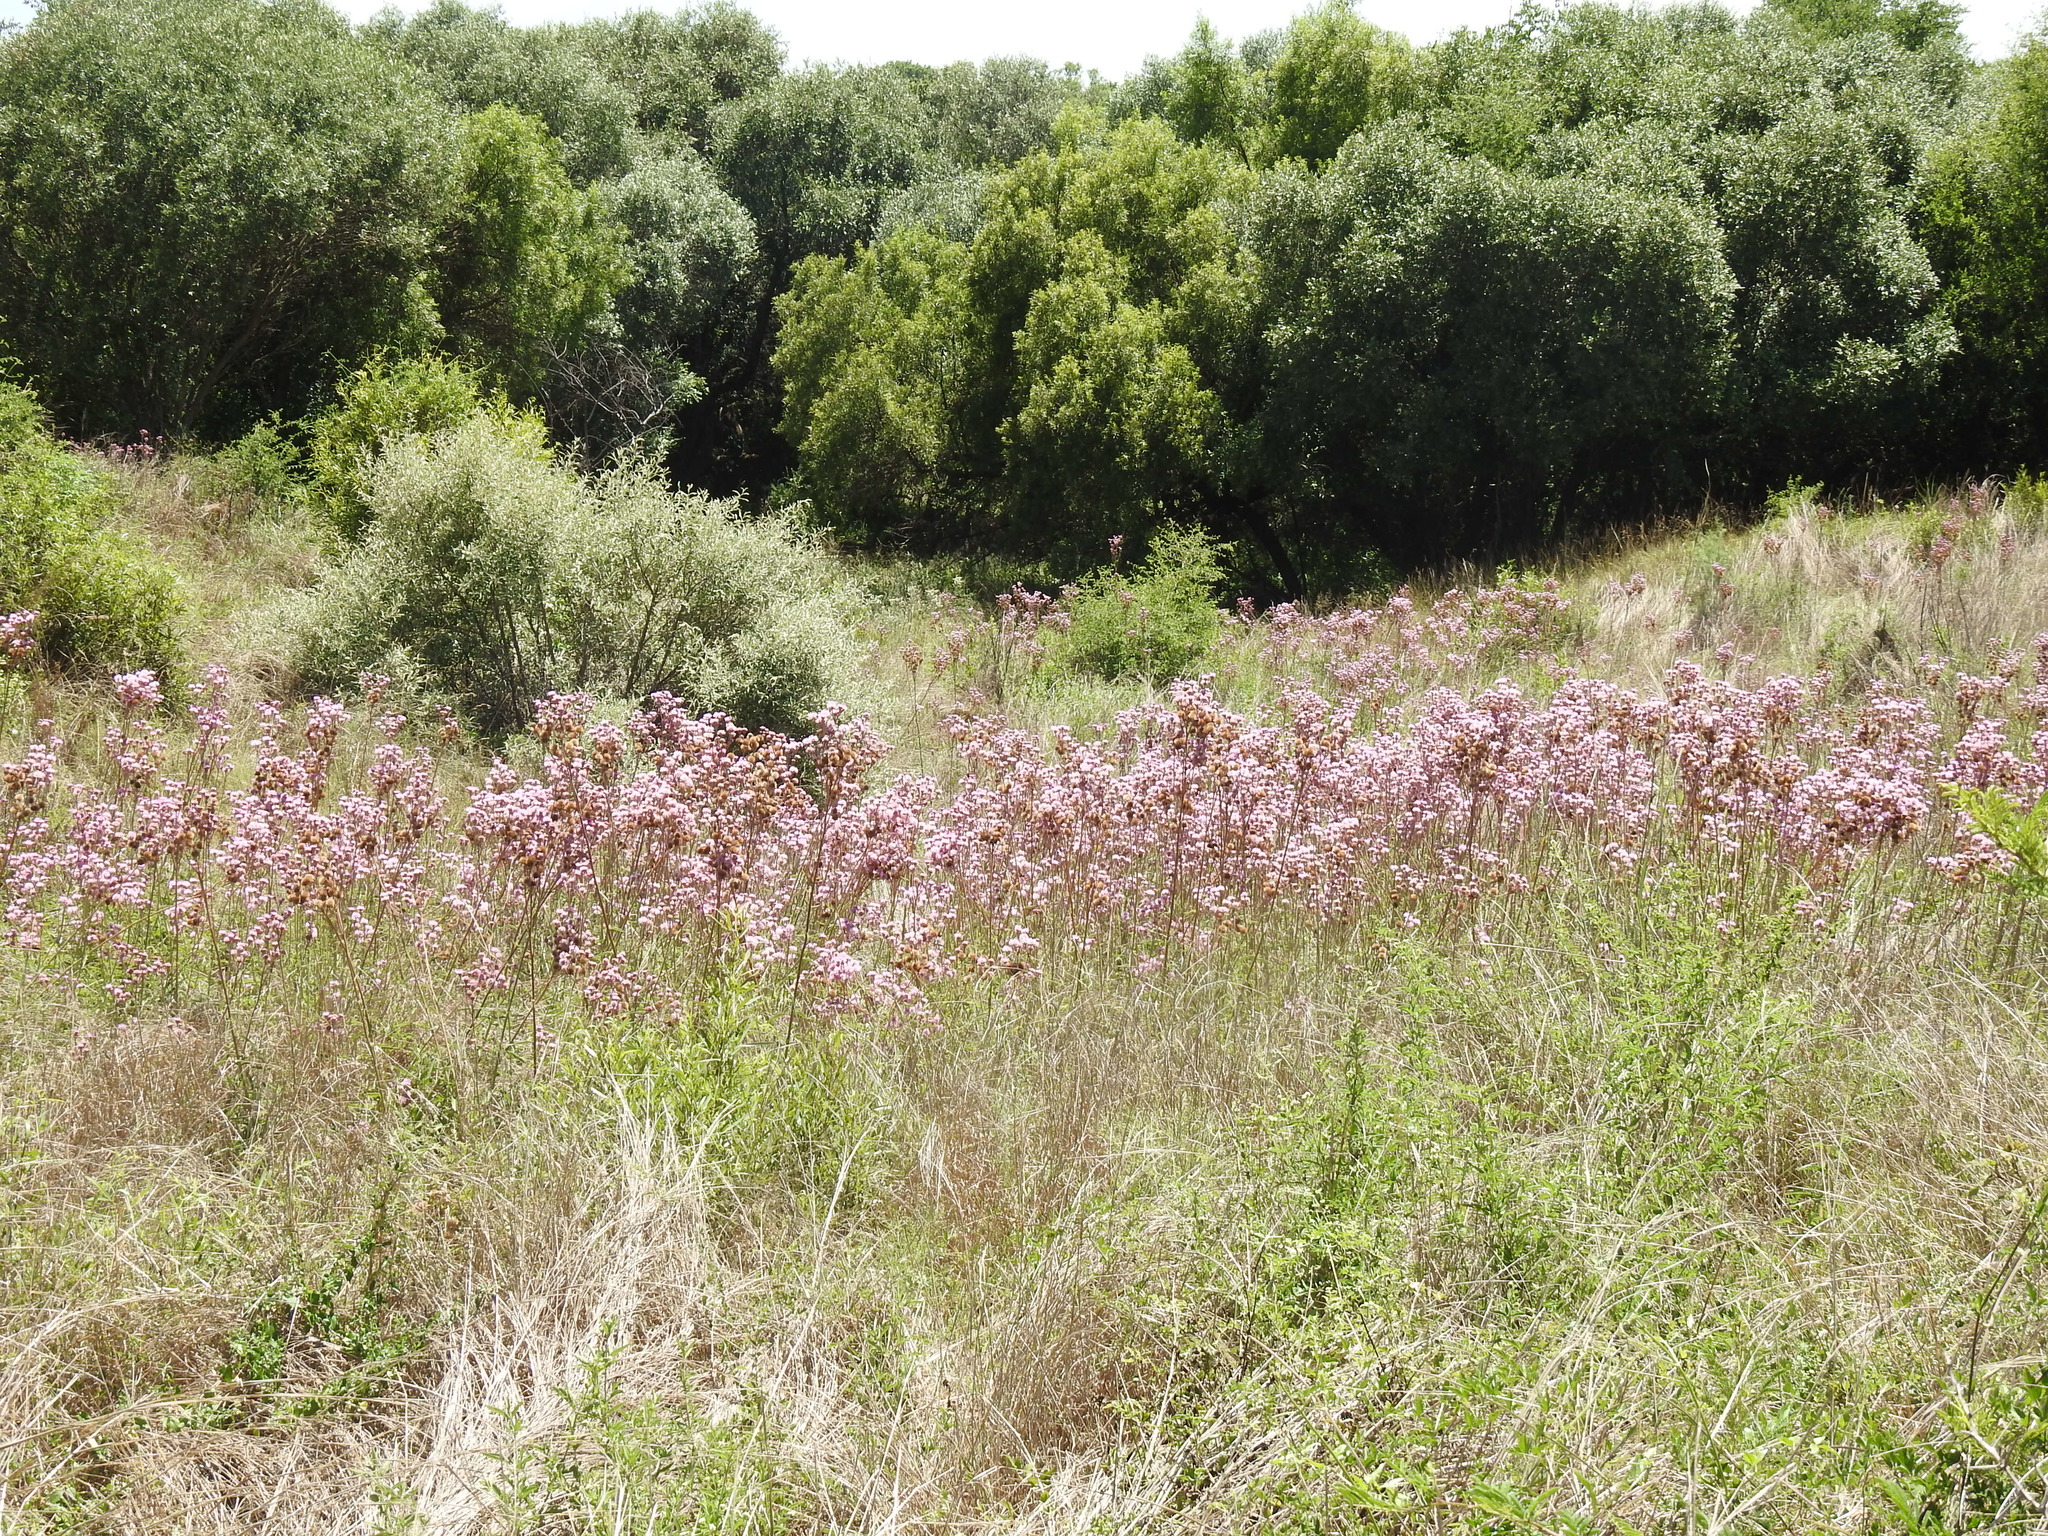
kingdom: Plantae
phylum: Tracheophyta
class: Magnoliopsida
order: Asterales
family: Asteraceae
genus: Campuloclinium
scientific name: Campuloclinium macrocephalum
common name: Pompomweed
